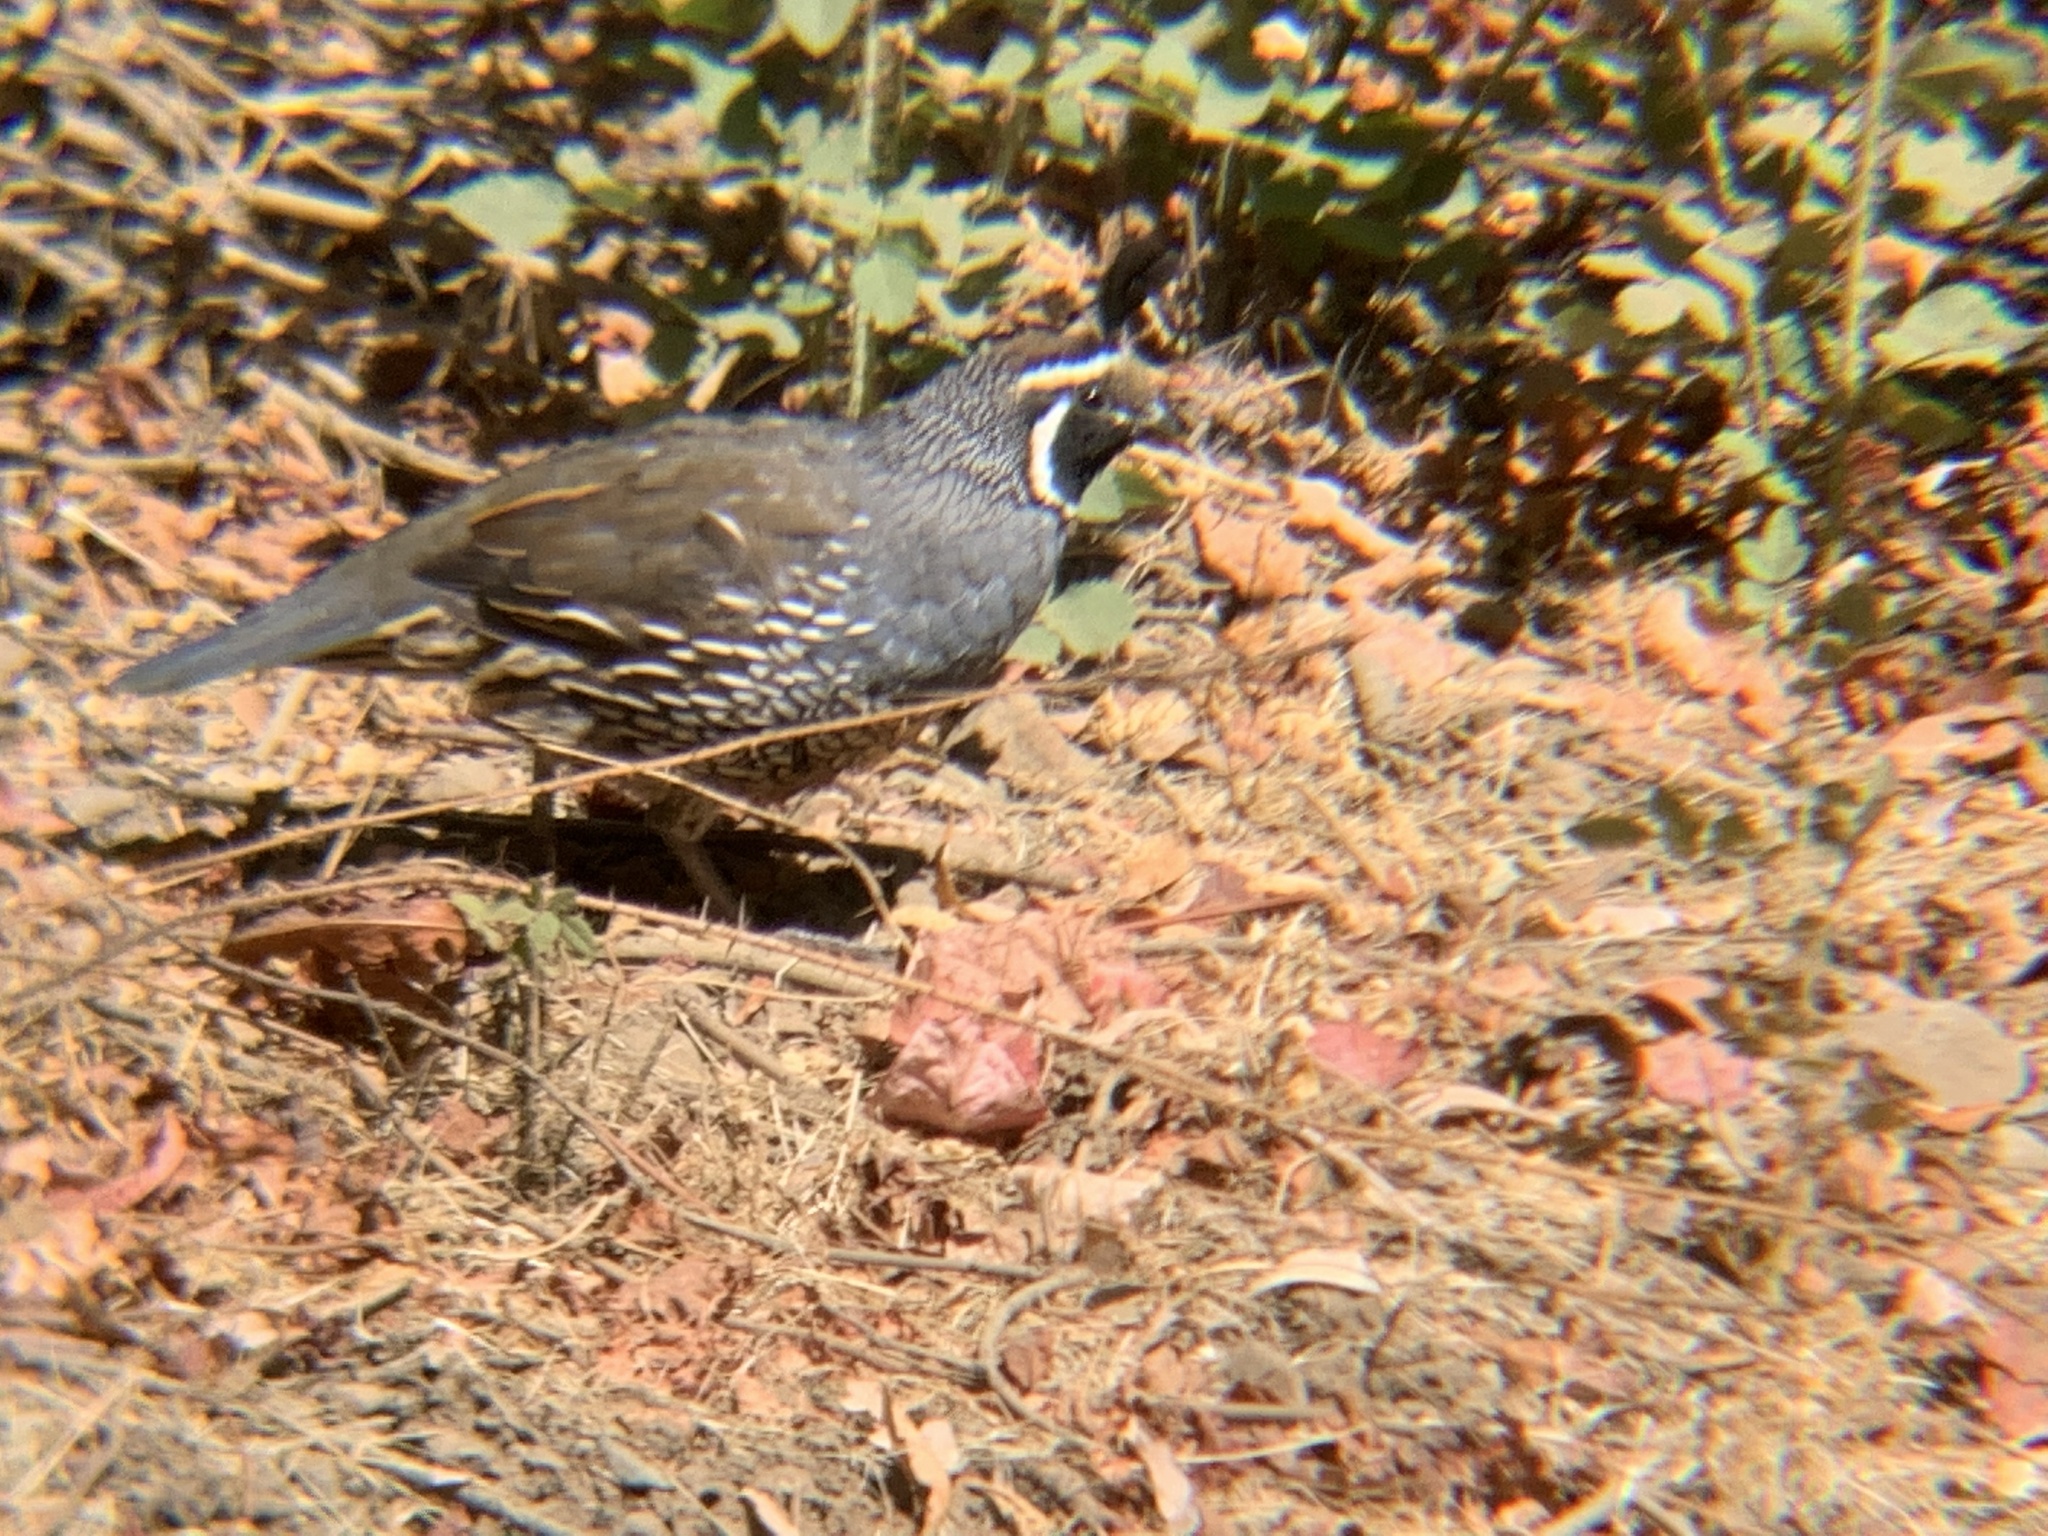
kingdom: Animalia
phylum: Chordata
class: Aves
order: Galliformes
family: Odontophoridae
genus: Callipepla
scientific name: Callipepla californica
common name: California quail
